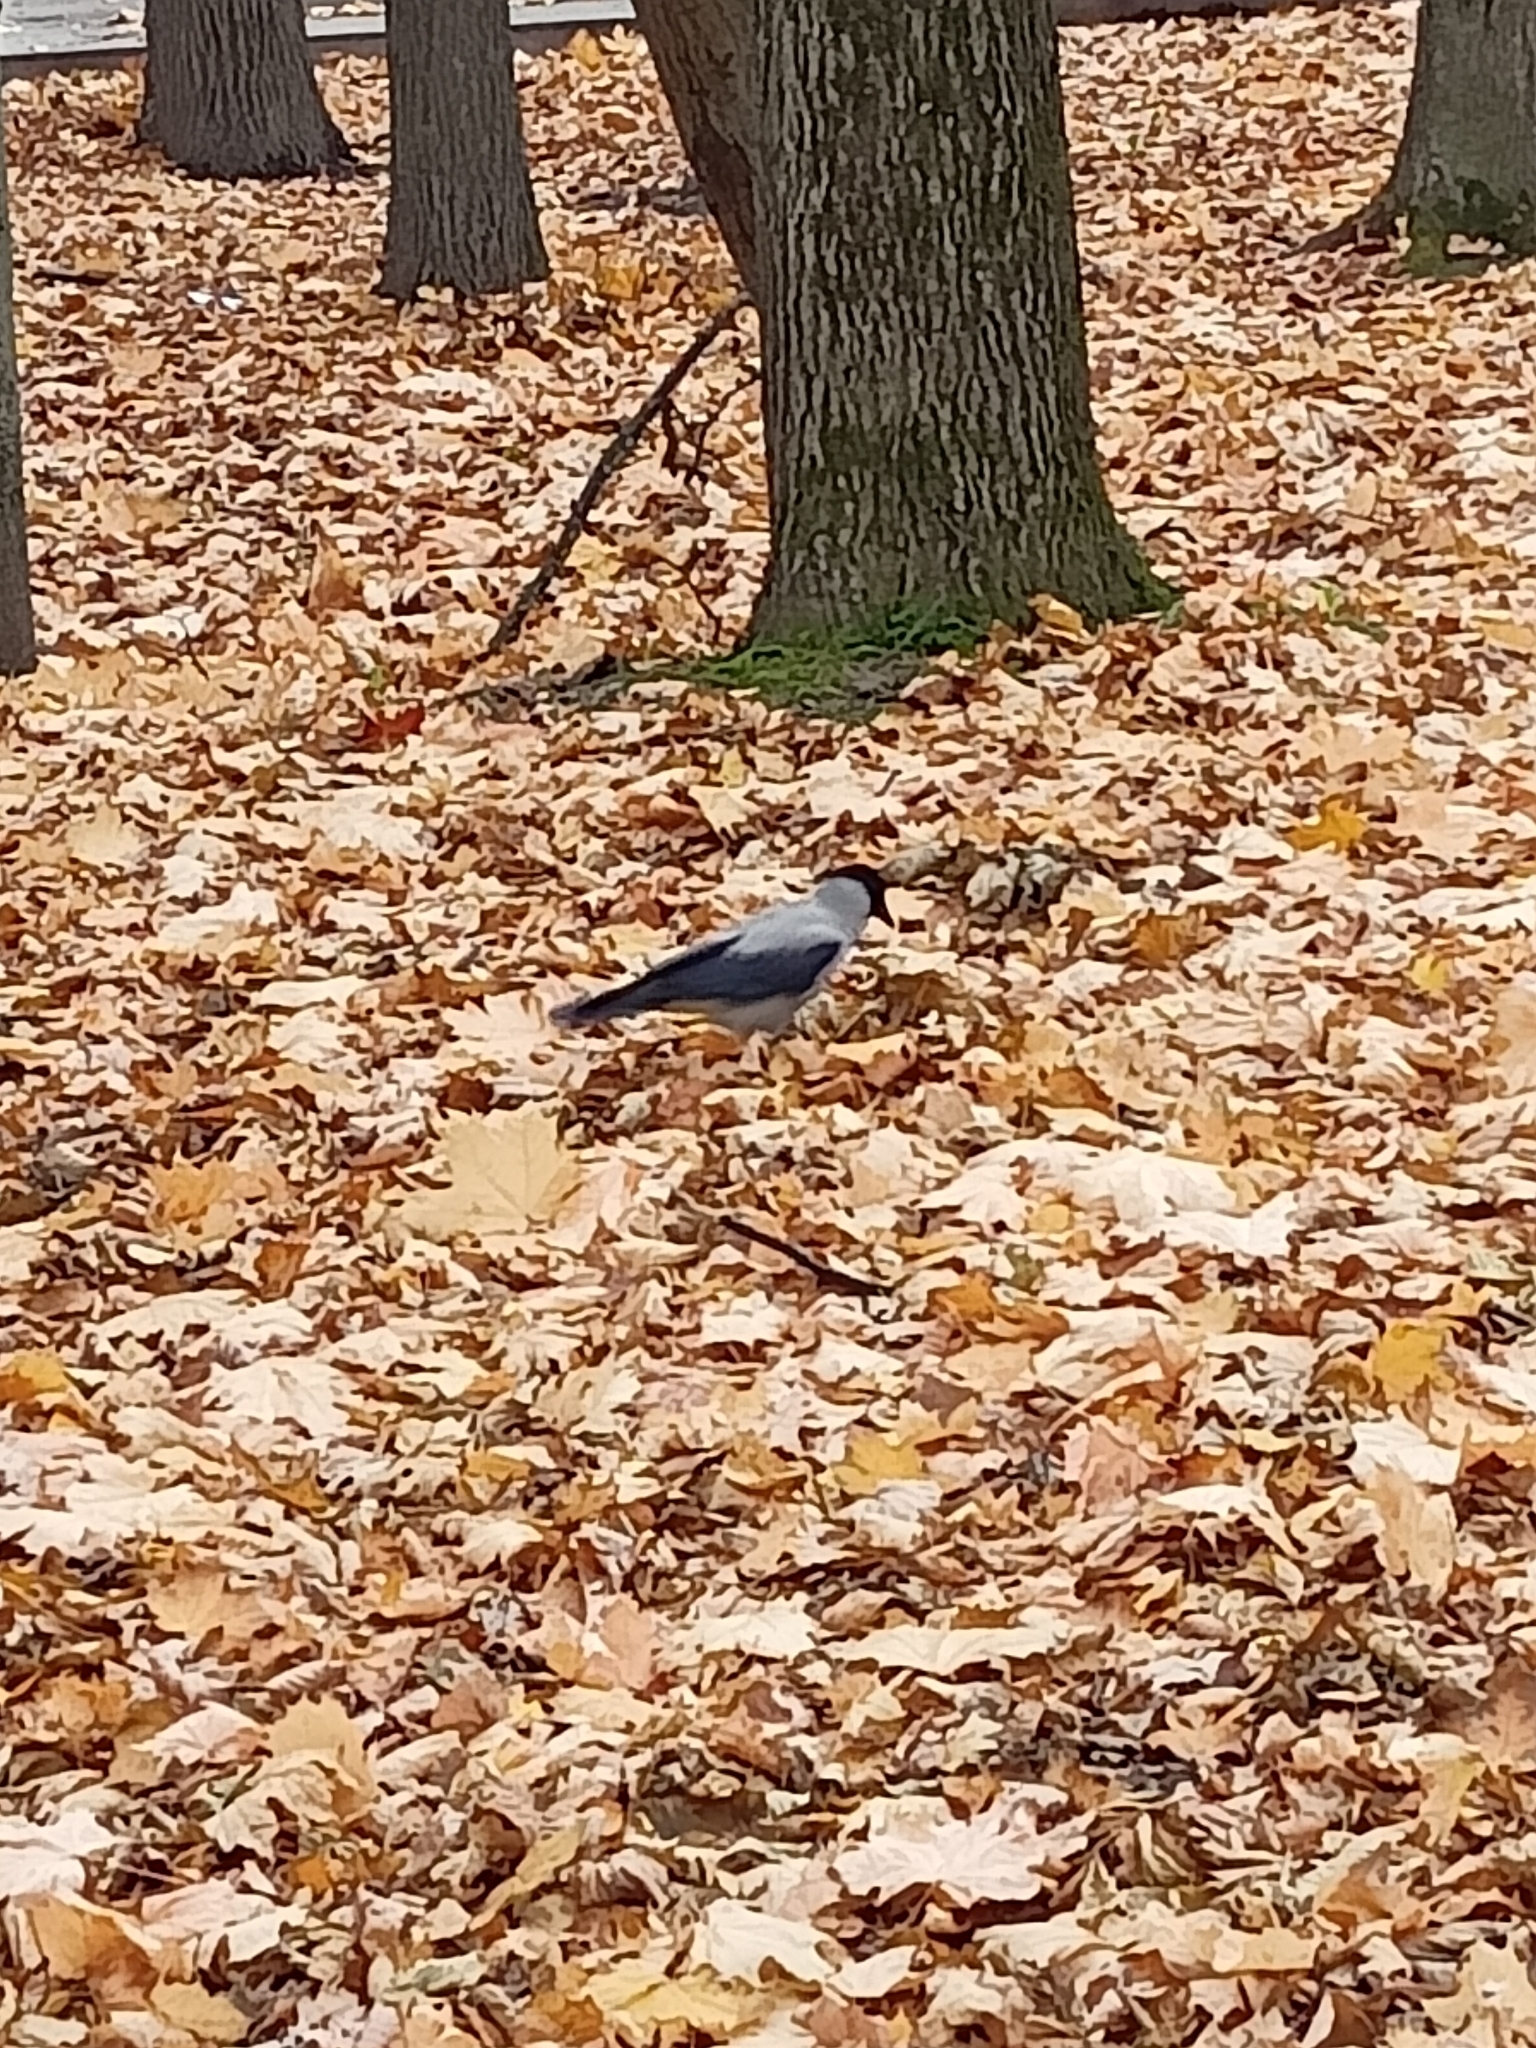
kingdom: Animalia
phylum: Chordata
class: Aves
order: Passeriformes
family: Corvidae
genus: Corvus
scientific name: Corvus cornix
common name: Hooded crow
